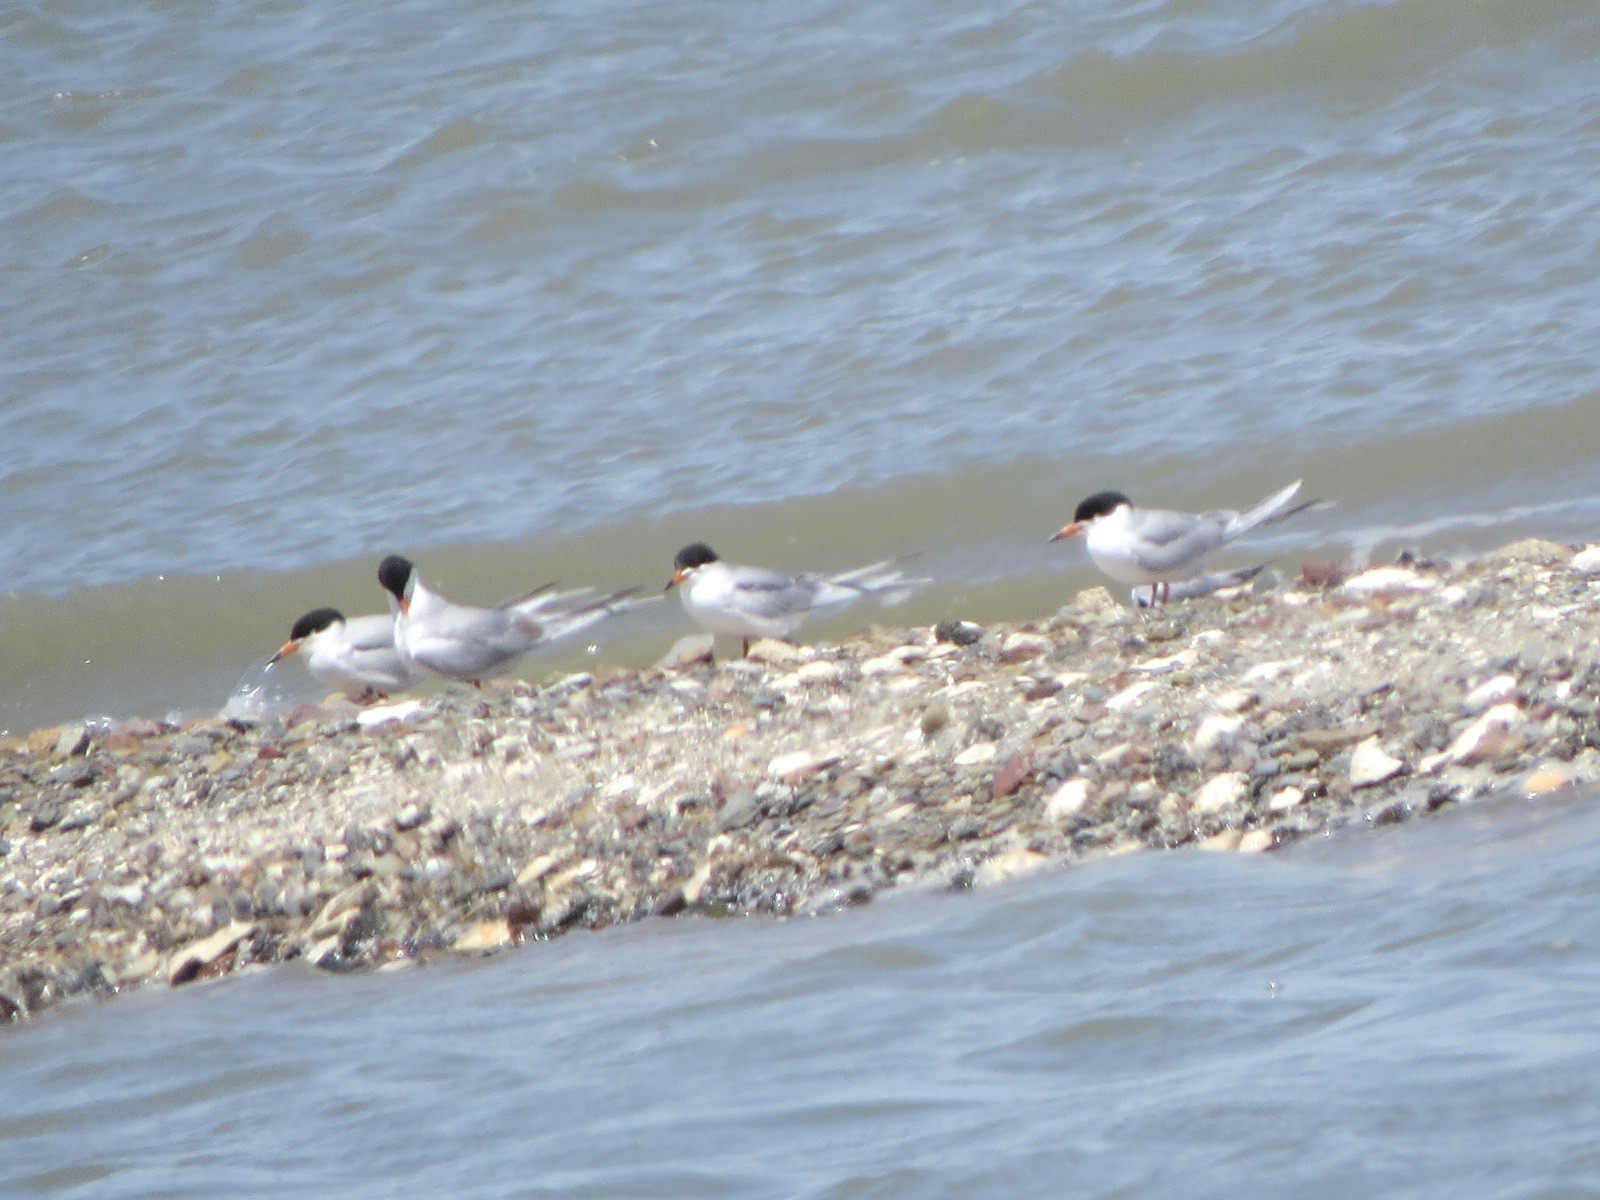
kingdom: Animalia
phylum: Chordata
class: Aves
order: Charadriiformes
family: Laridae
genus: Sterna
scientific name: Sterna forsteri
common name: Forster's tern
